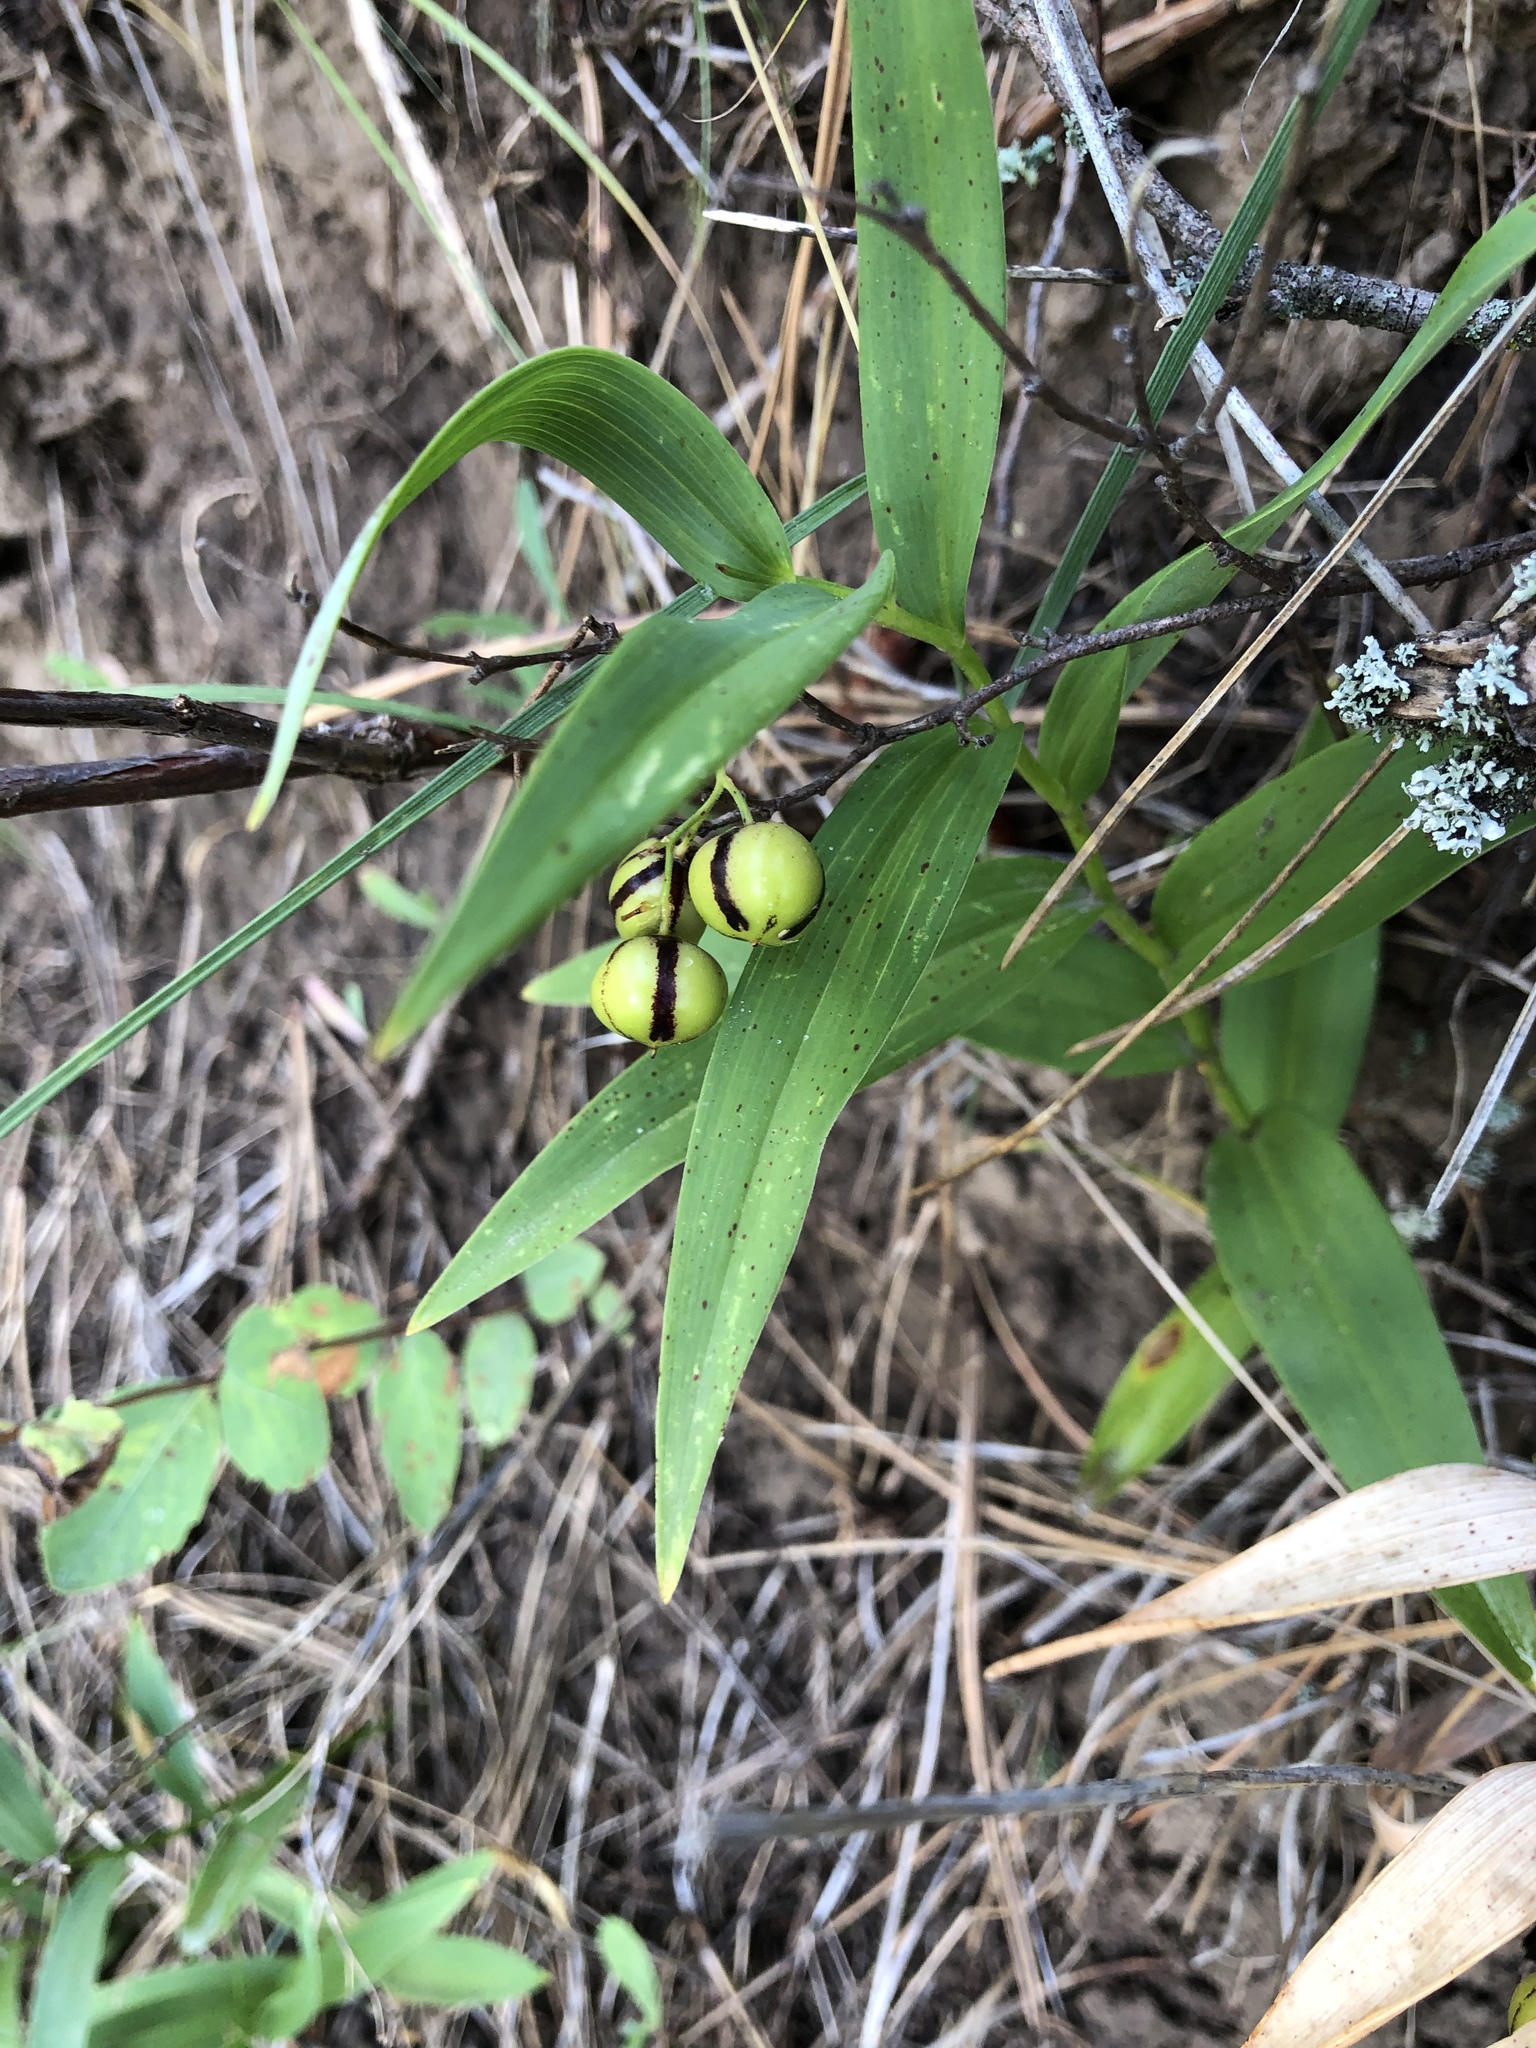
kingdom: Plantae
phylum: Tracheophyta
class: Liliopsida
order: Asparagales
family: Asparagaceae
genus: Maianthemum
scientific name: Maianthemum stellatum
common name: Little false solomon's seal
